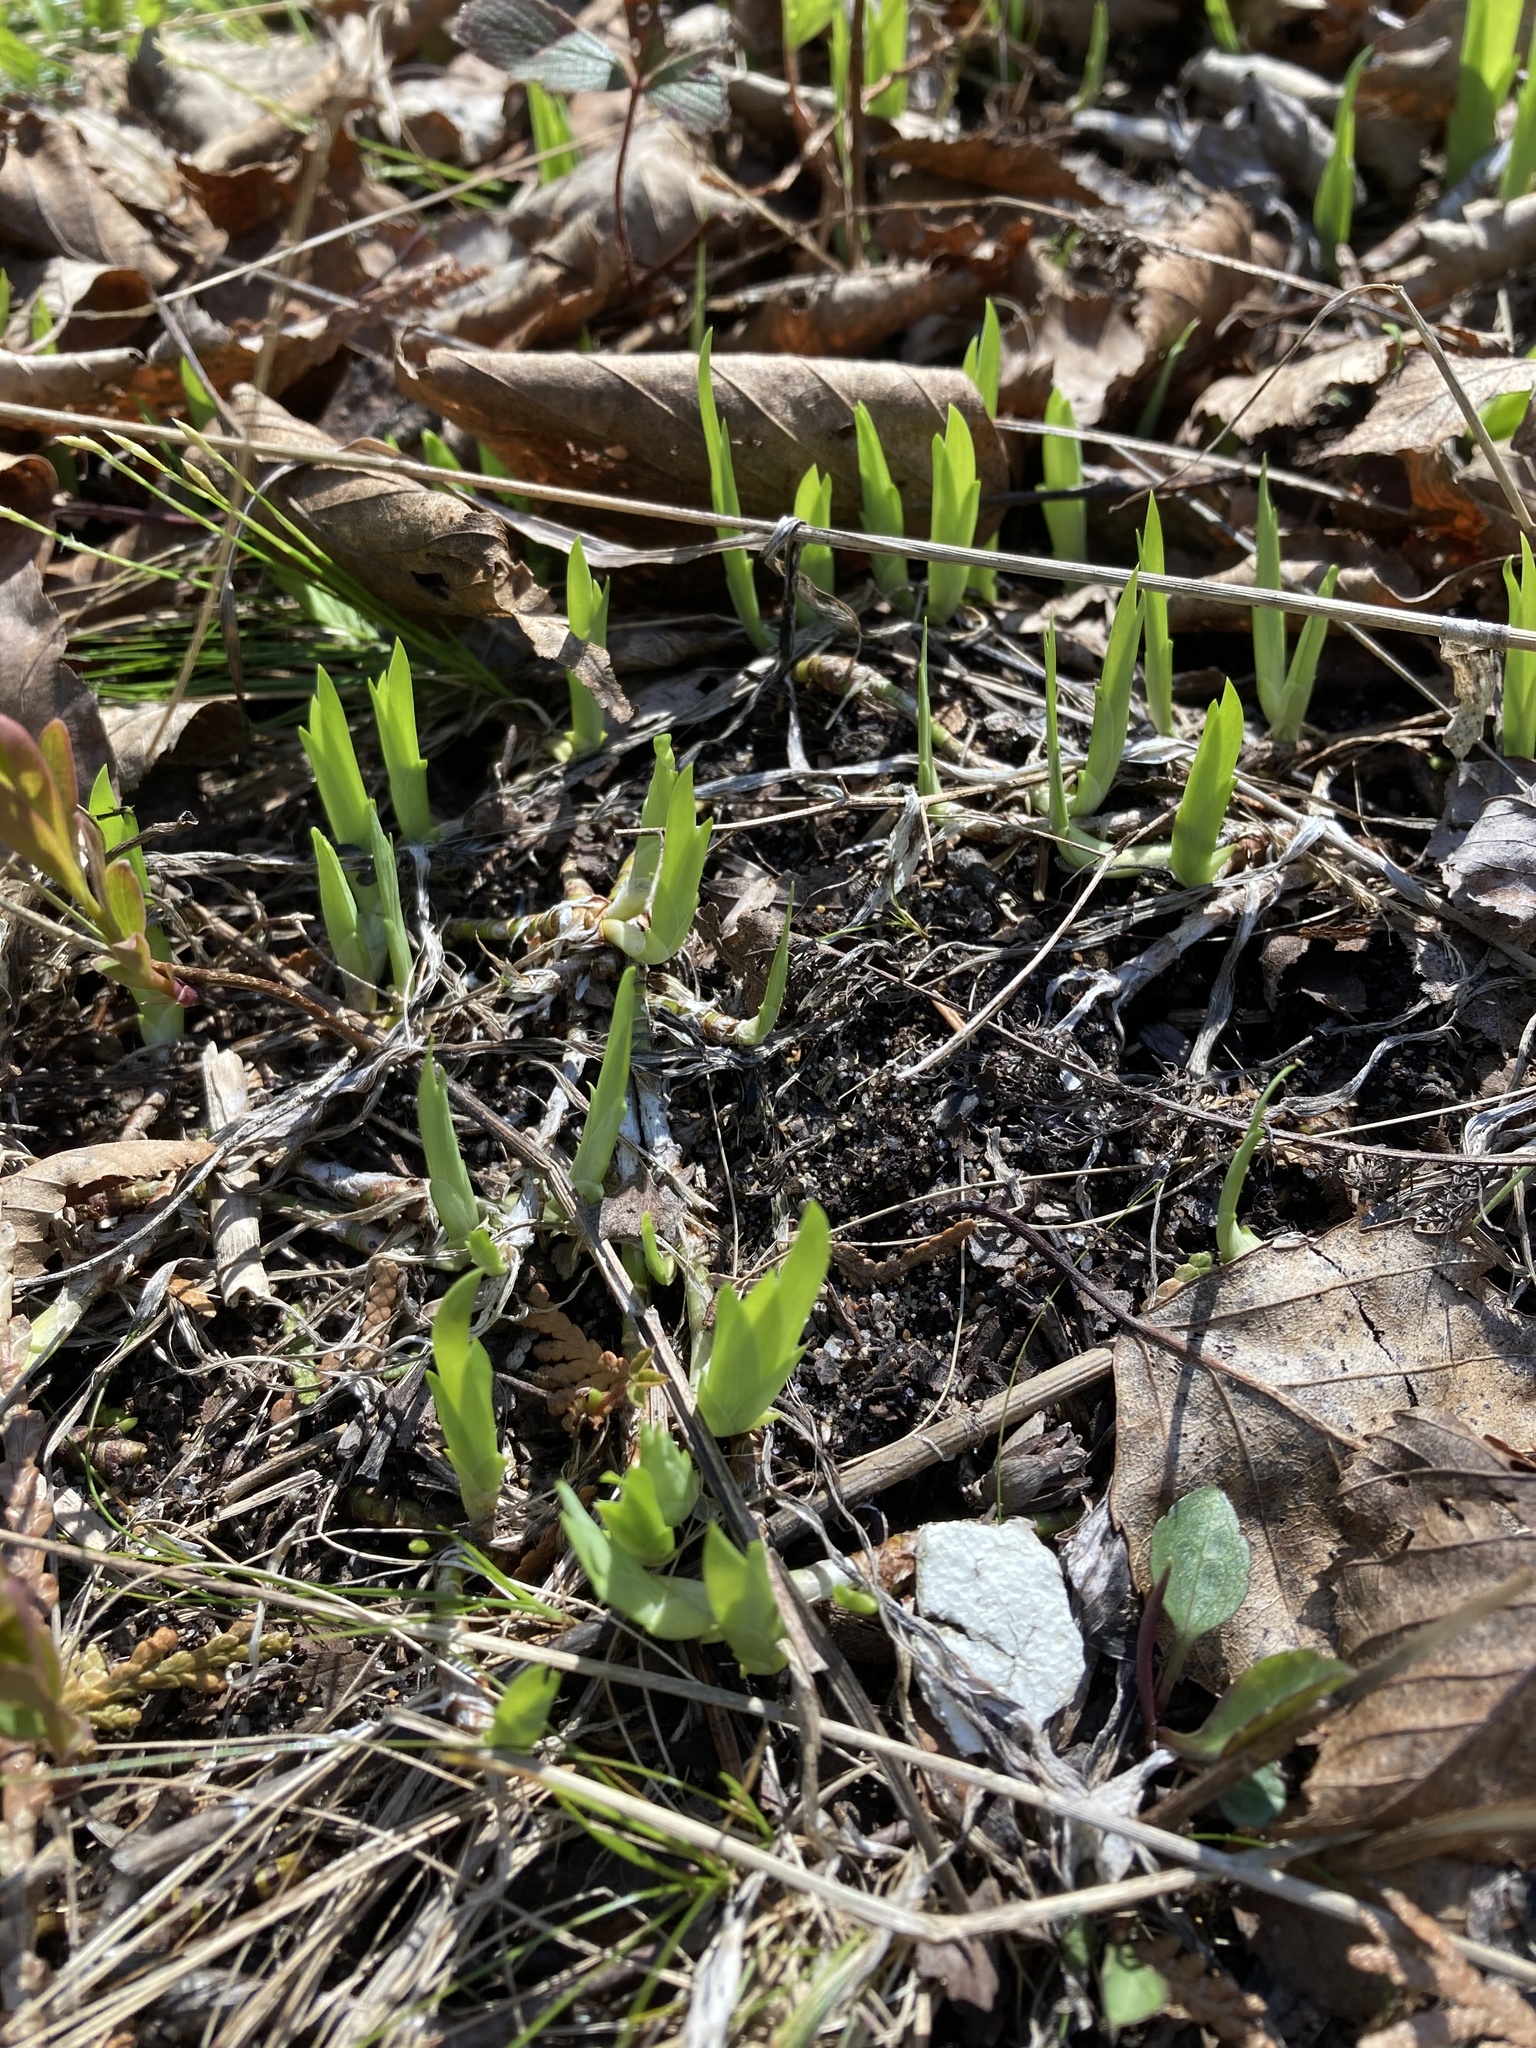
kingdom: Plantae
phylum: Tracheophyta
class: Liliopsida
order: Asparagales
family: Iridaceae
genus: Iris
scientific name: Iris lacustris
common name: Dwarf lake iris
